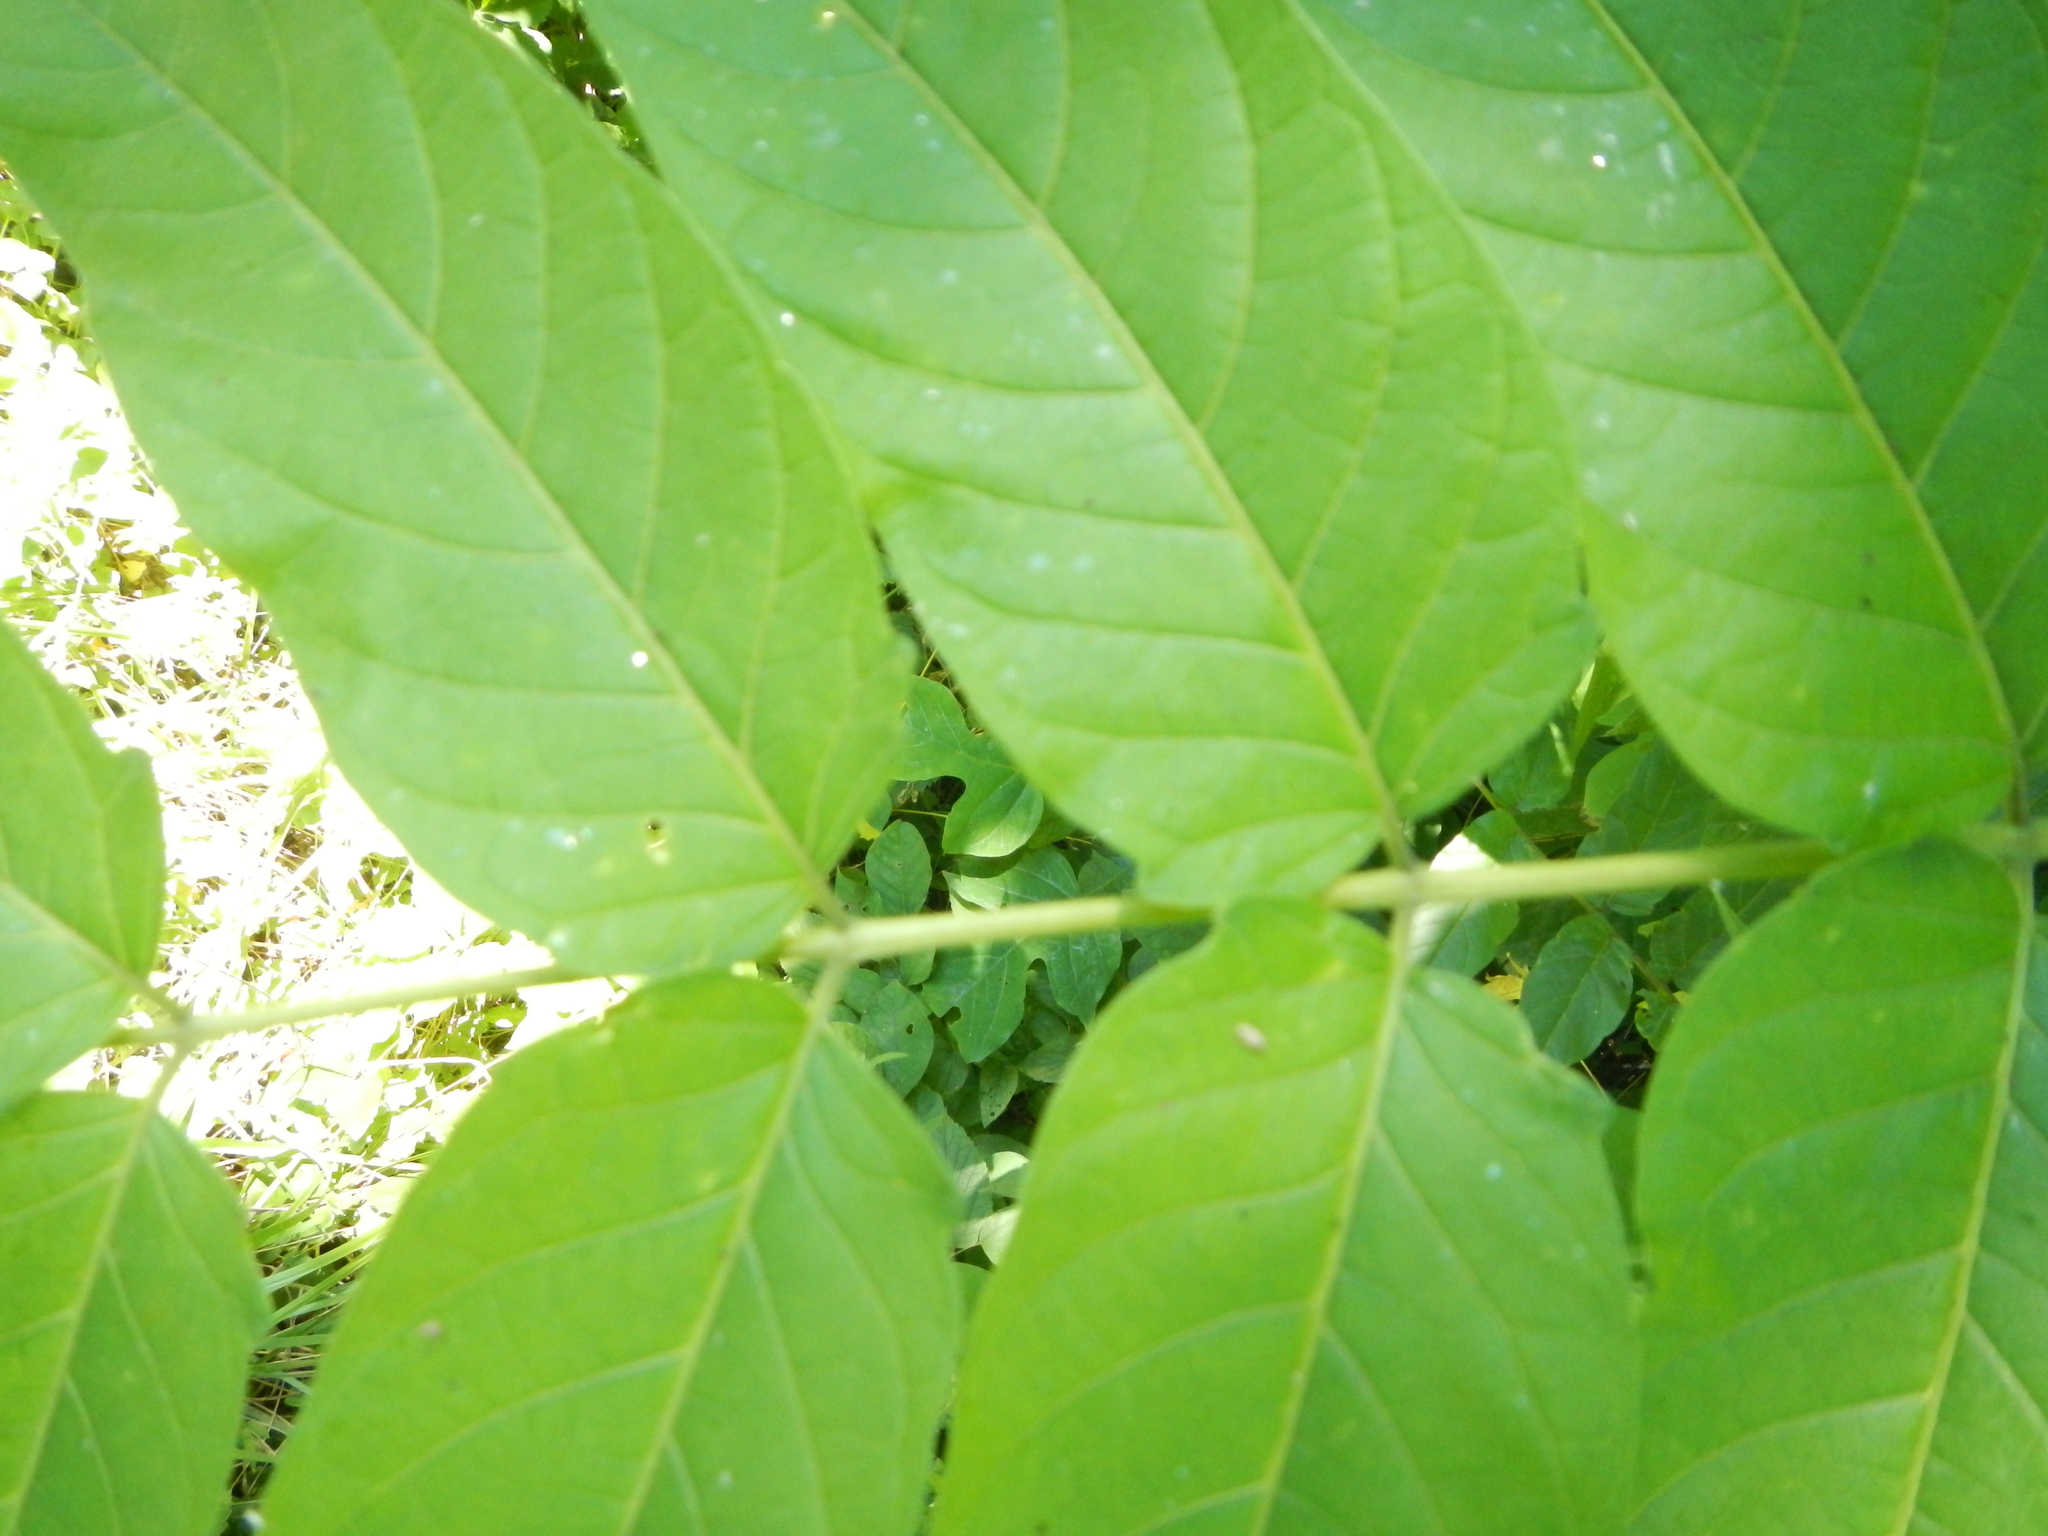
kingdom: Plantae
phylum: Tracheophyta
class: Magnoliopsida
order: Sapindales
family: Simaroubaceae
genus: Ailanthus
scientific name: Ailanthus altissima
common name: Tree-of-heaven
